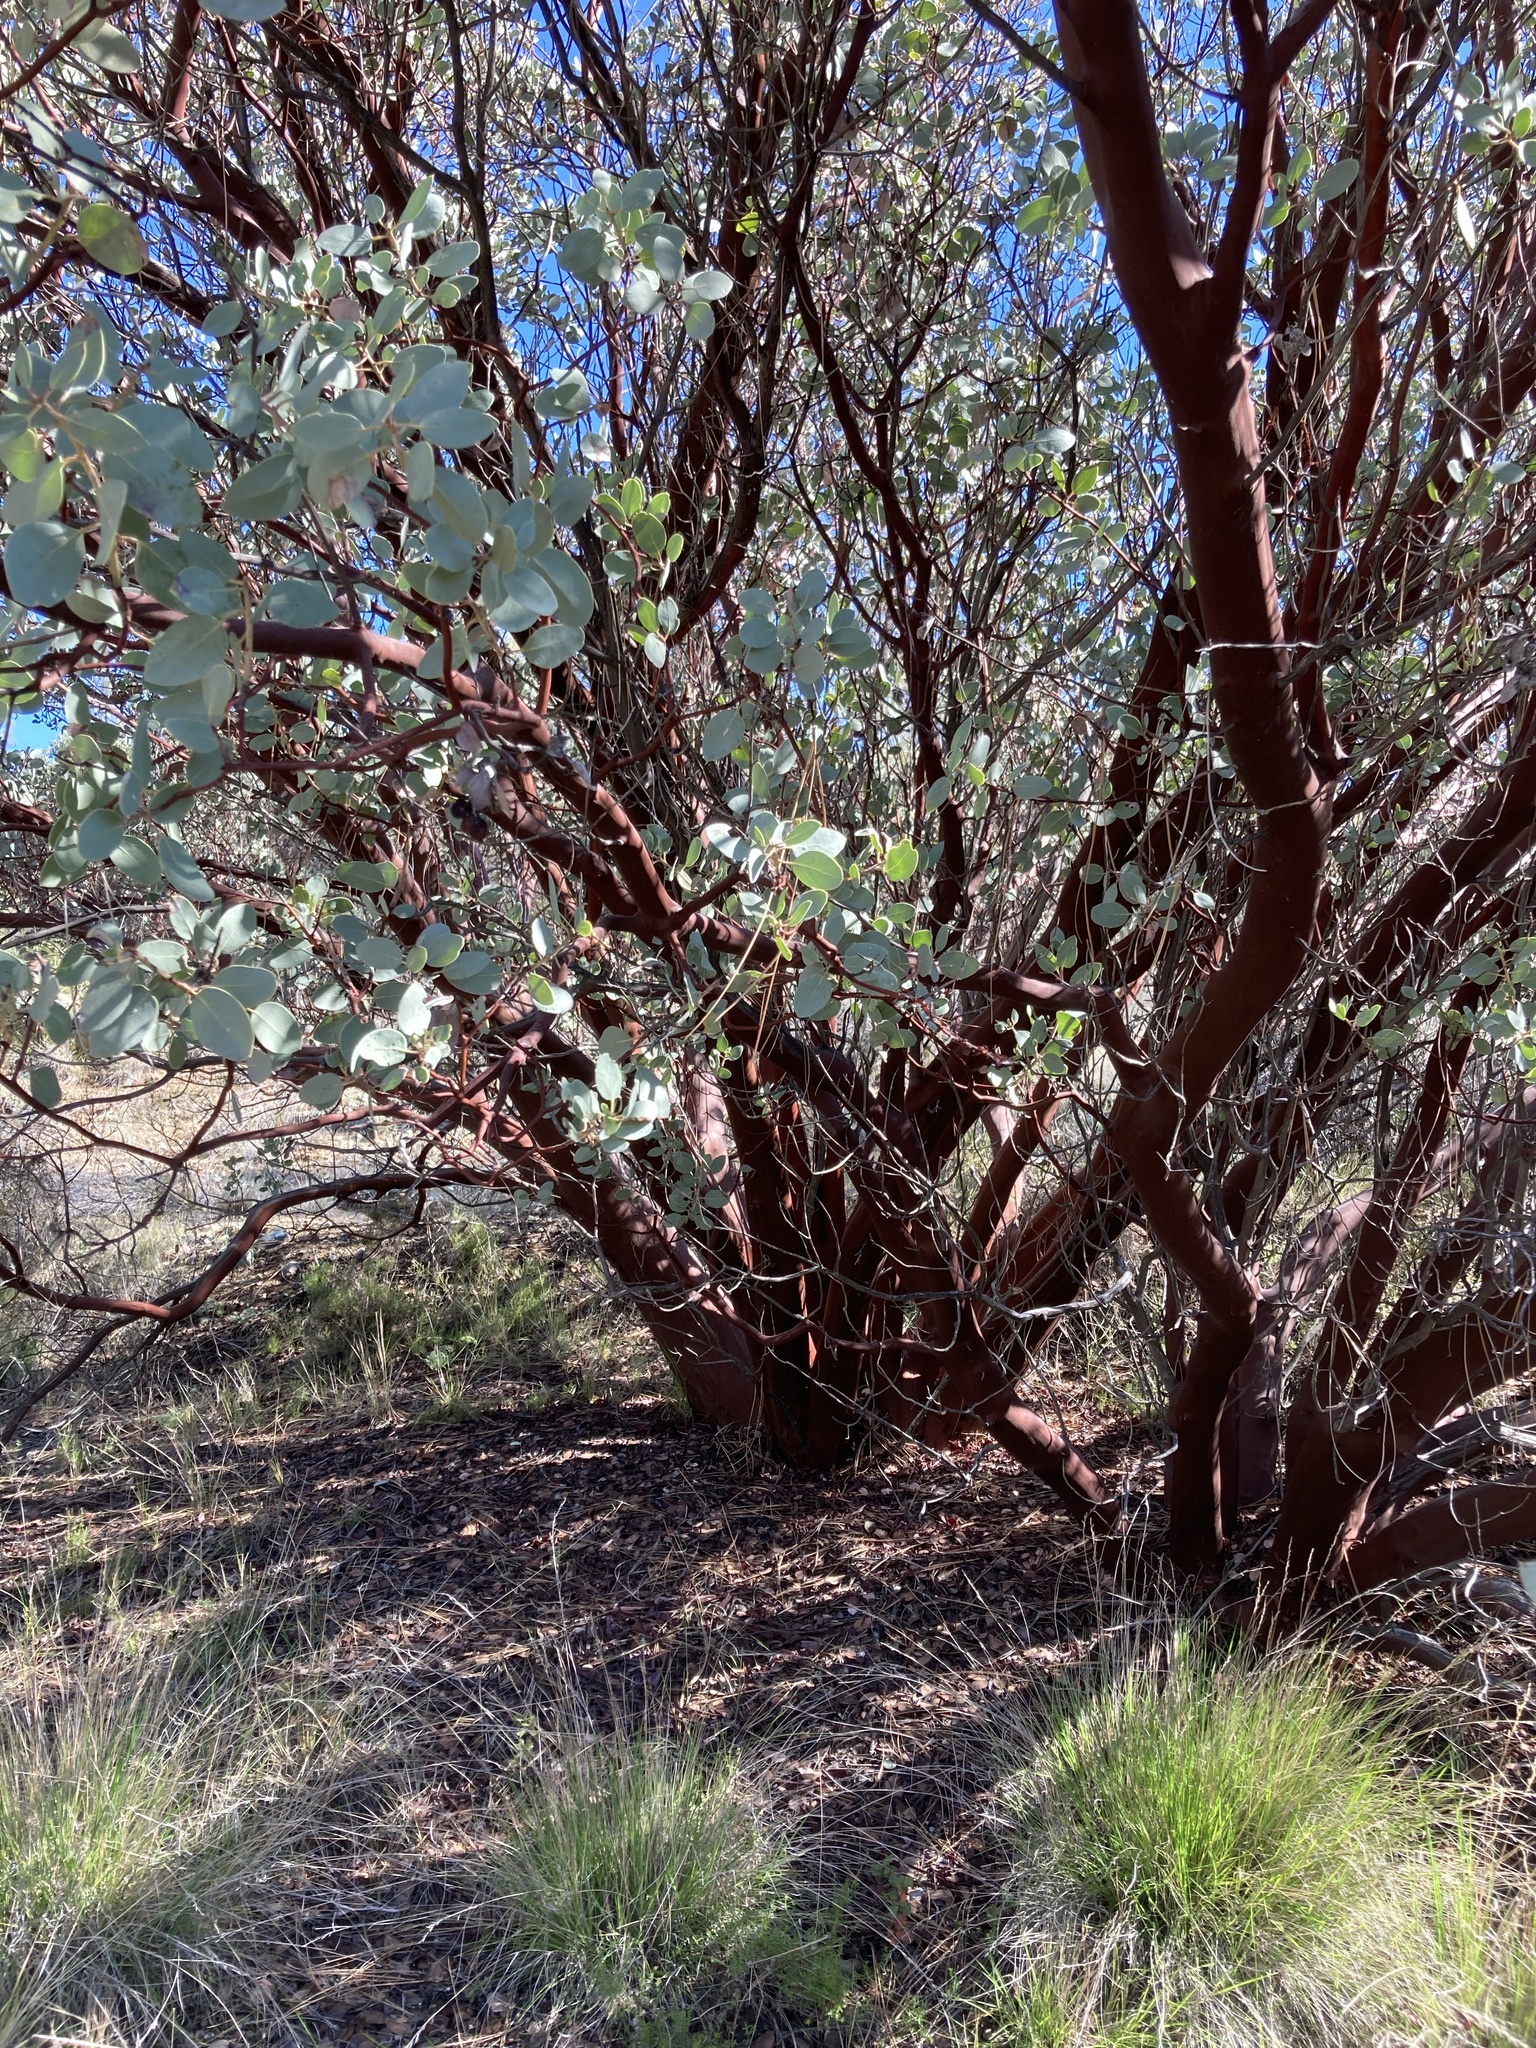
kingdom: Plantae
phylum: Tracheophyta
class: Magnoliopsida
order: Ericales
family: Ericaceae
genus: Arctostaphylos
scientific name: Arctostaphylos glauca
